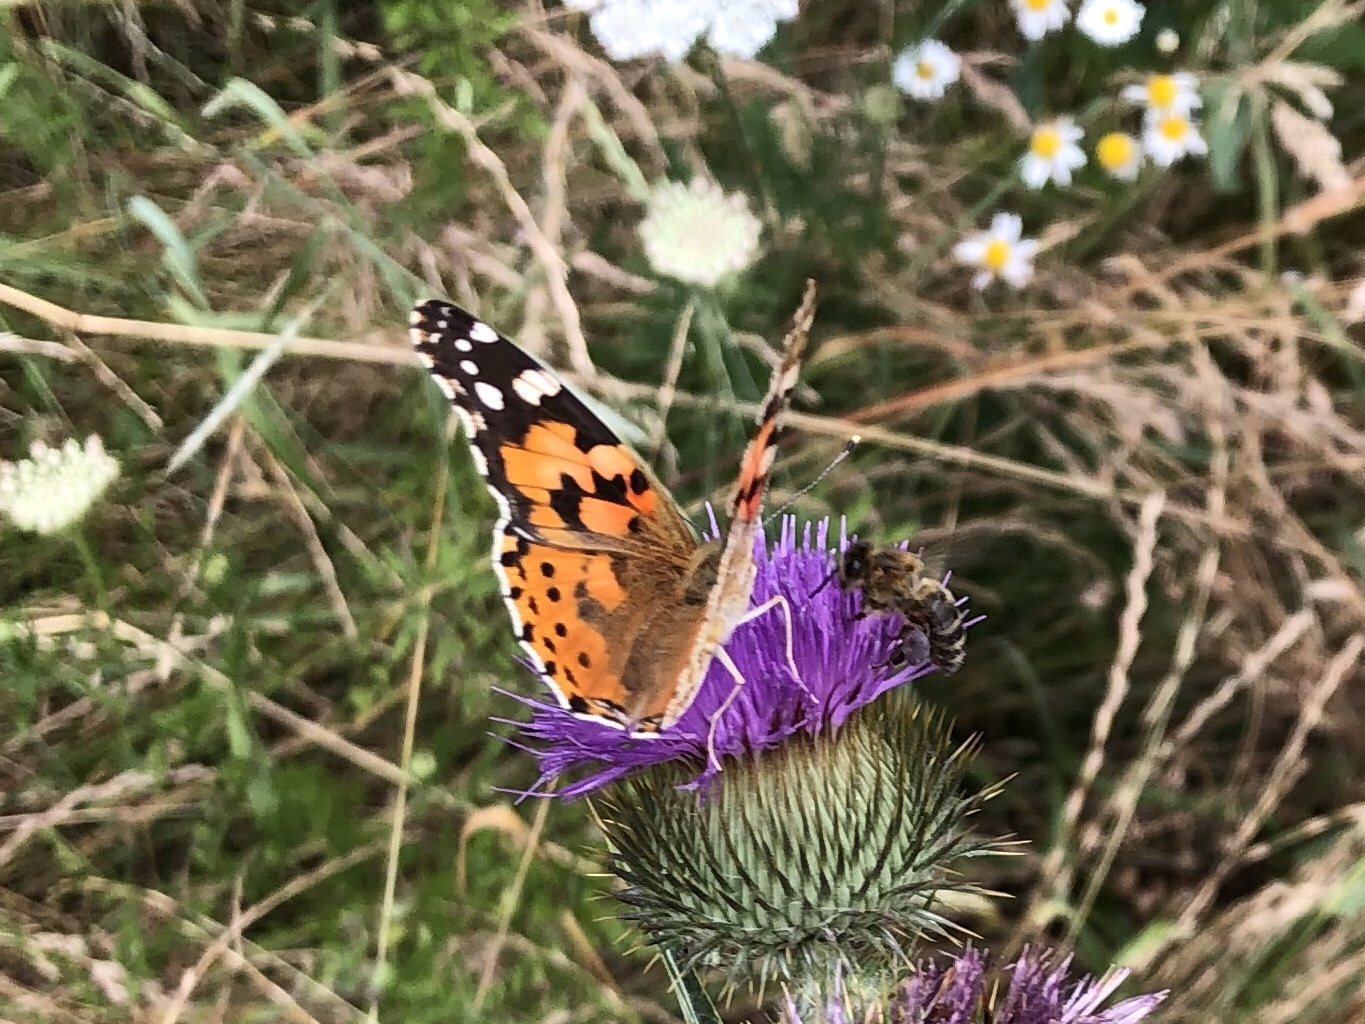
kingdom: Animalia
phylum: Arthropoda
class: Insecta
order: Lepidoptera
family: Nymphalidae
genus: Vanessa
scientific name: Vanessa cardui
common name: Painted lady
